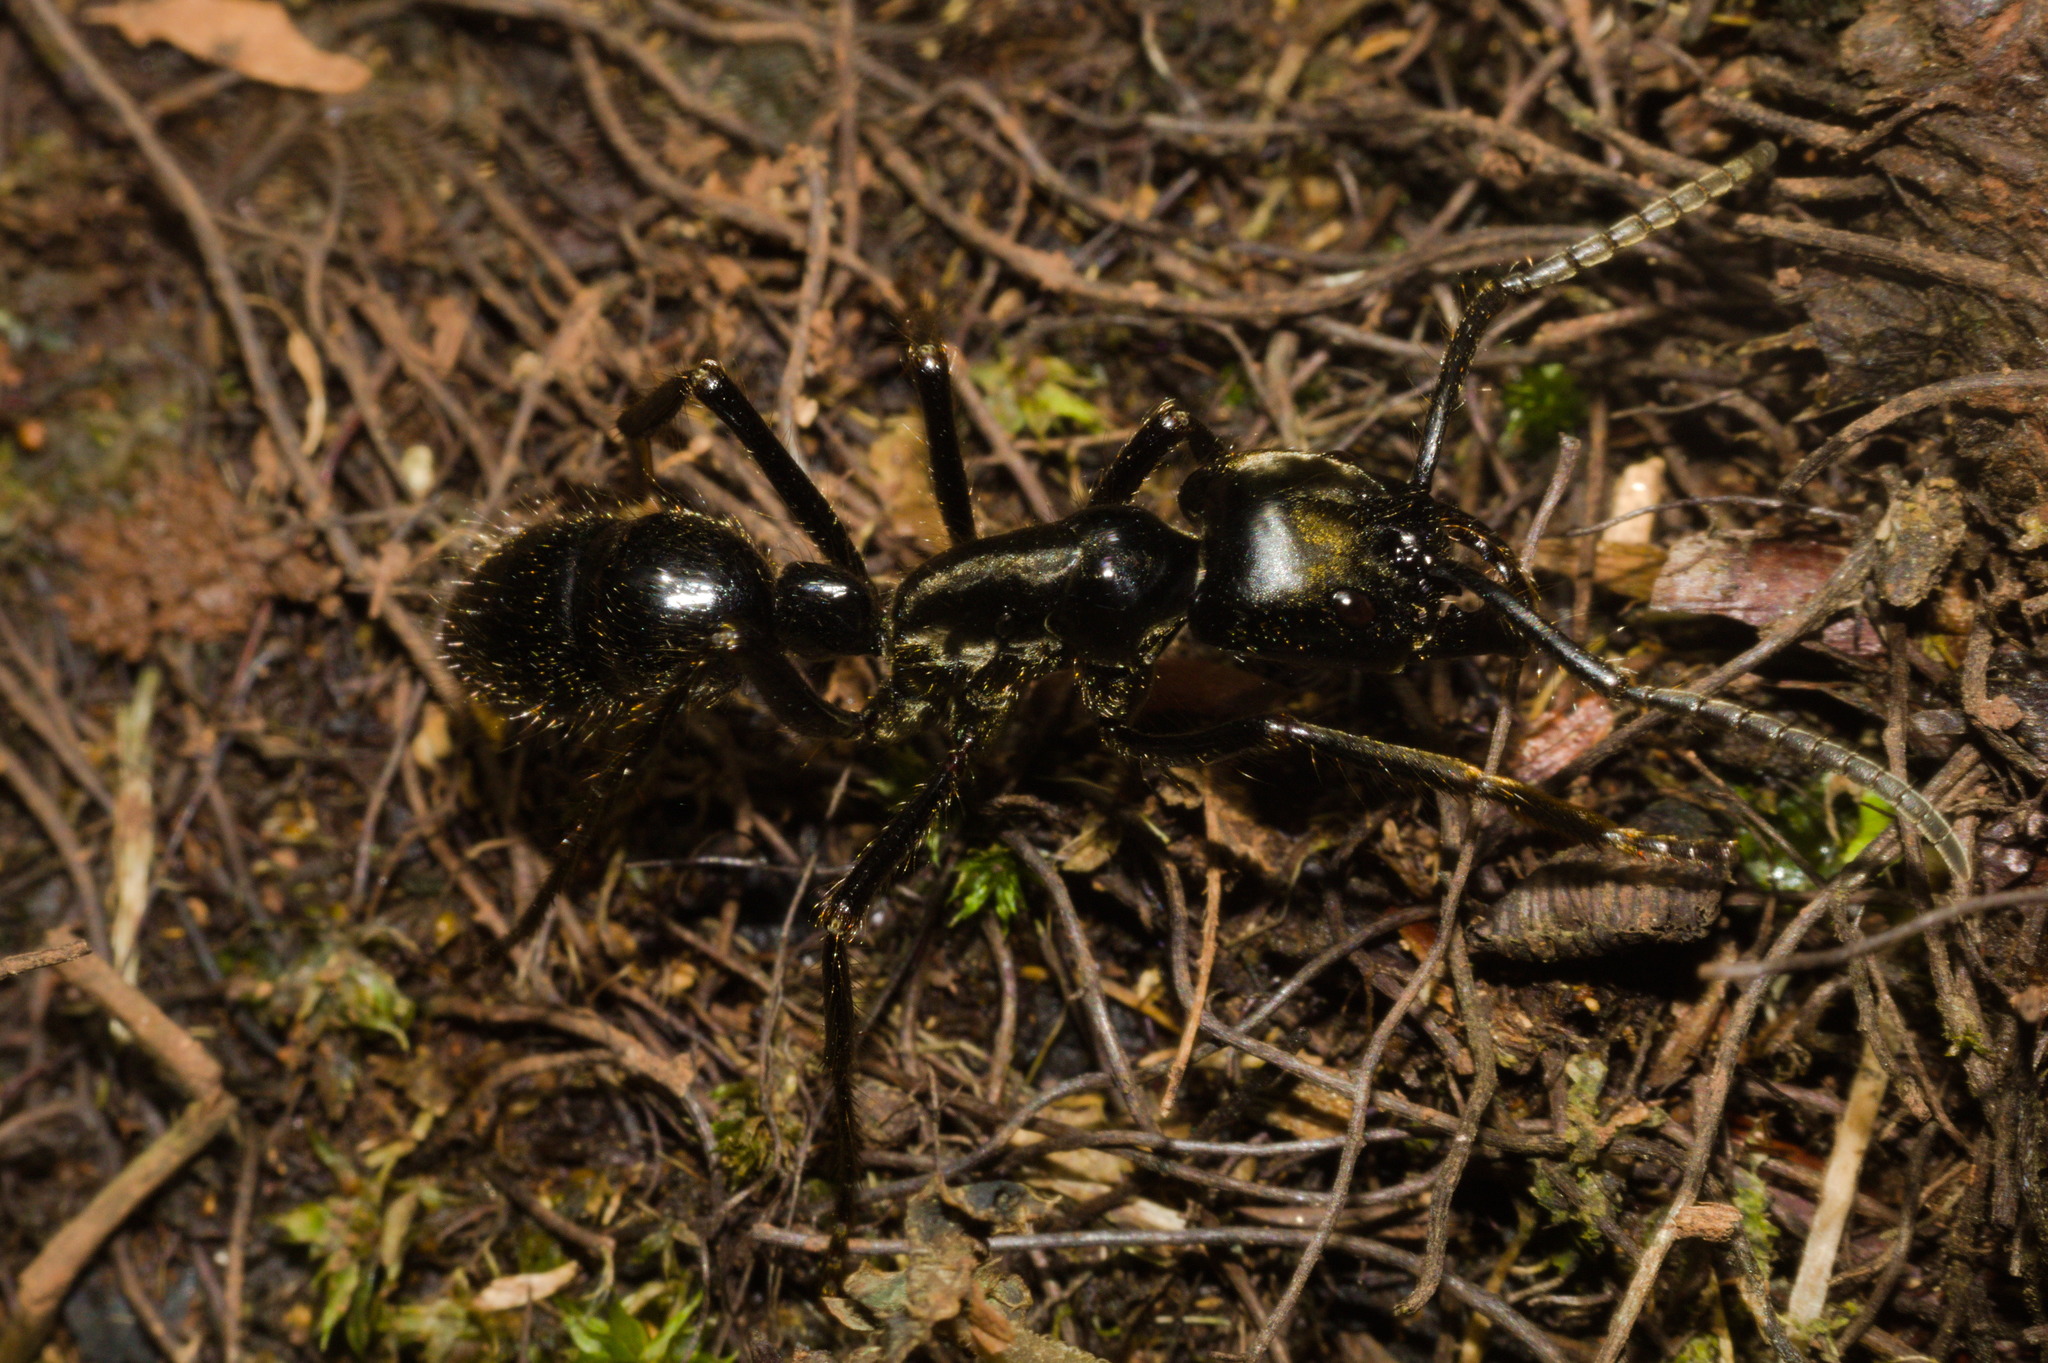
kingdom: Animalia
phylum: Arthropoda
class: Insecta
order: Hymenoptera
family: Formicidae
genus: Dinoponera
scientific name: Dinoponera mutica
